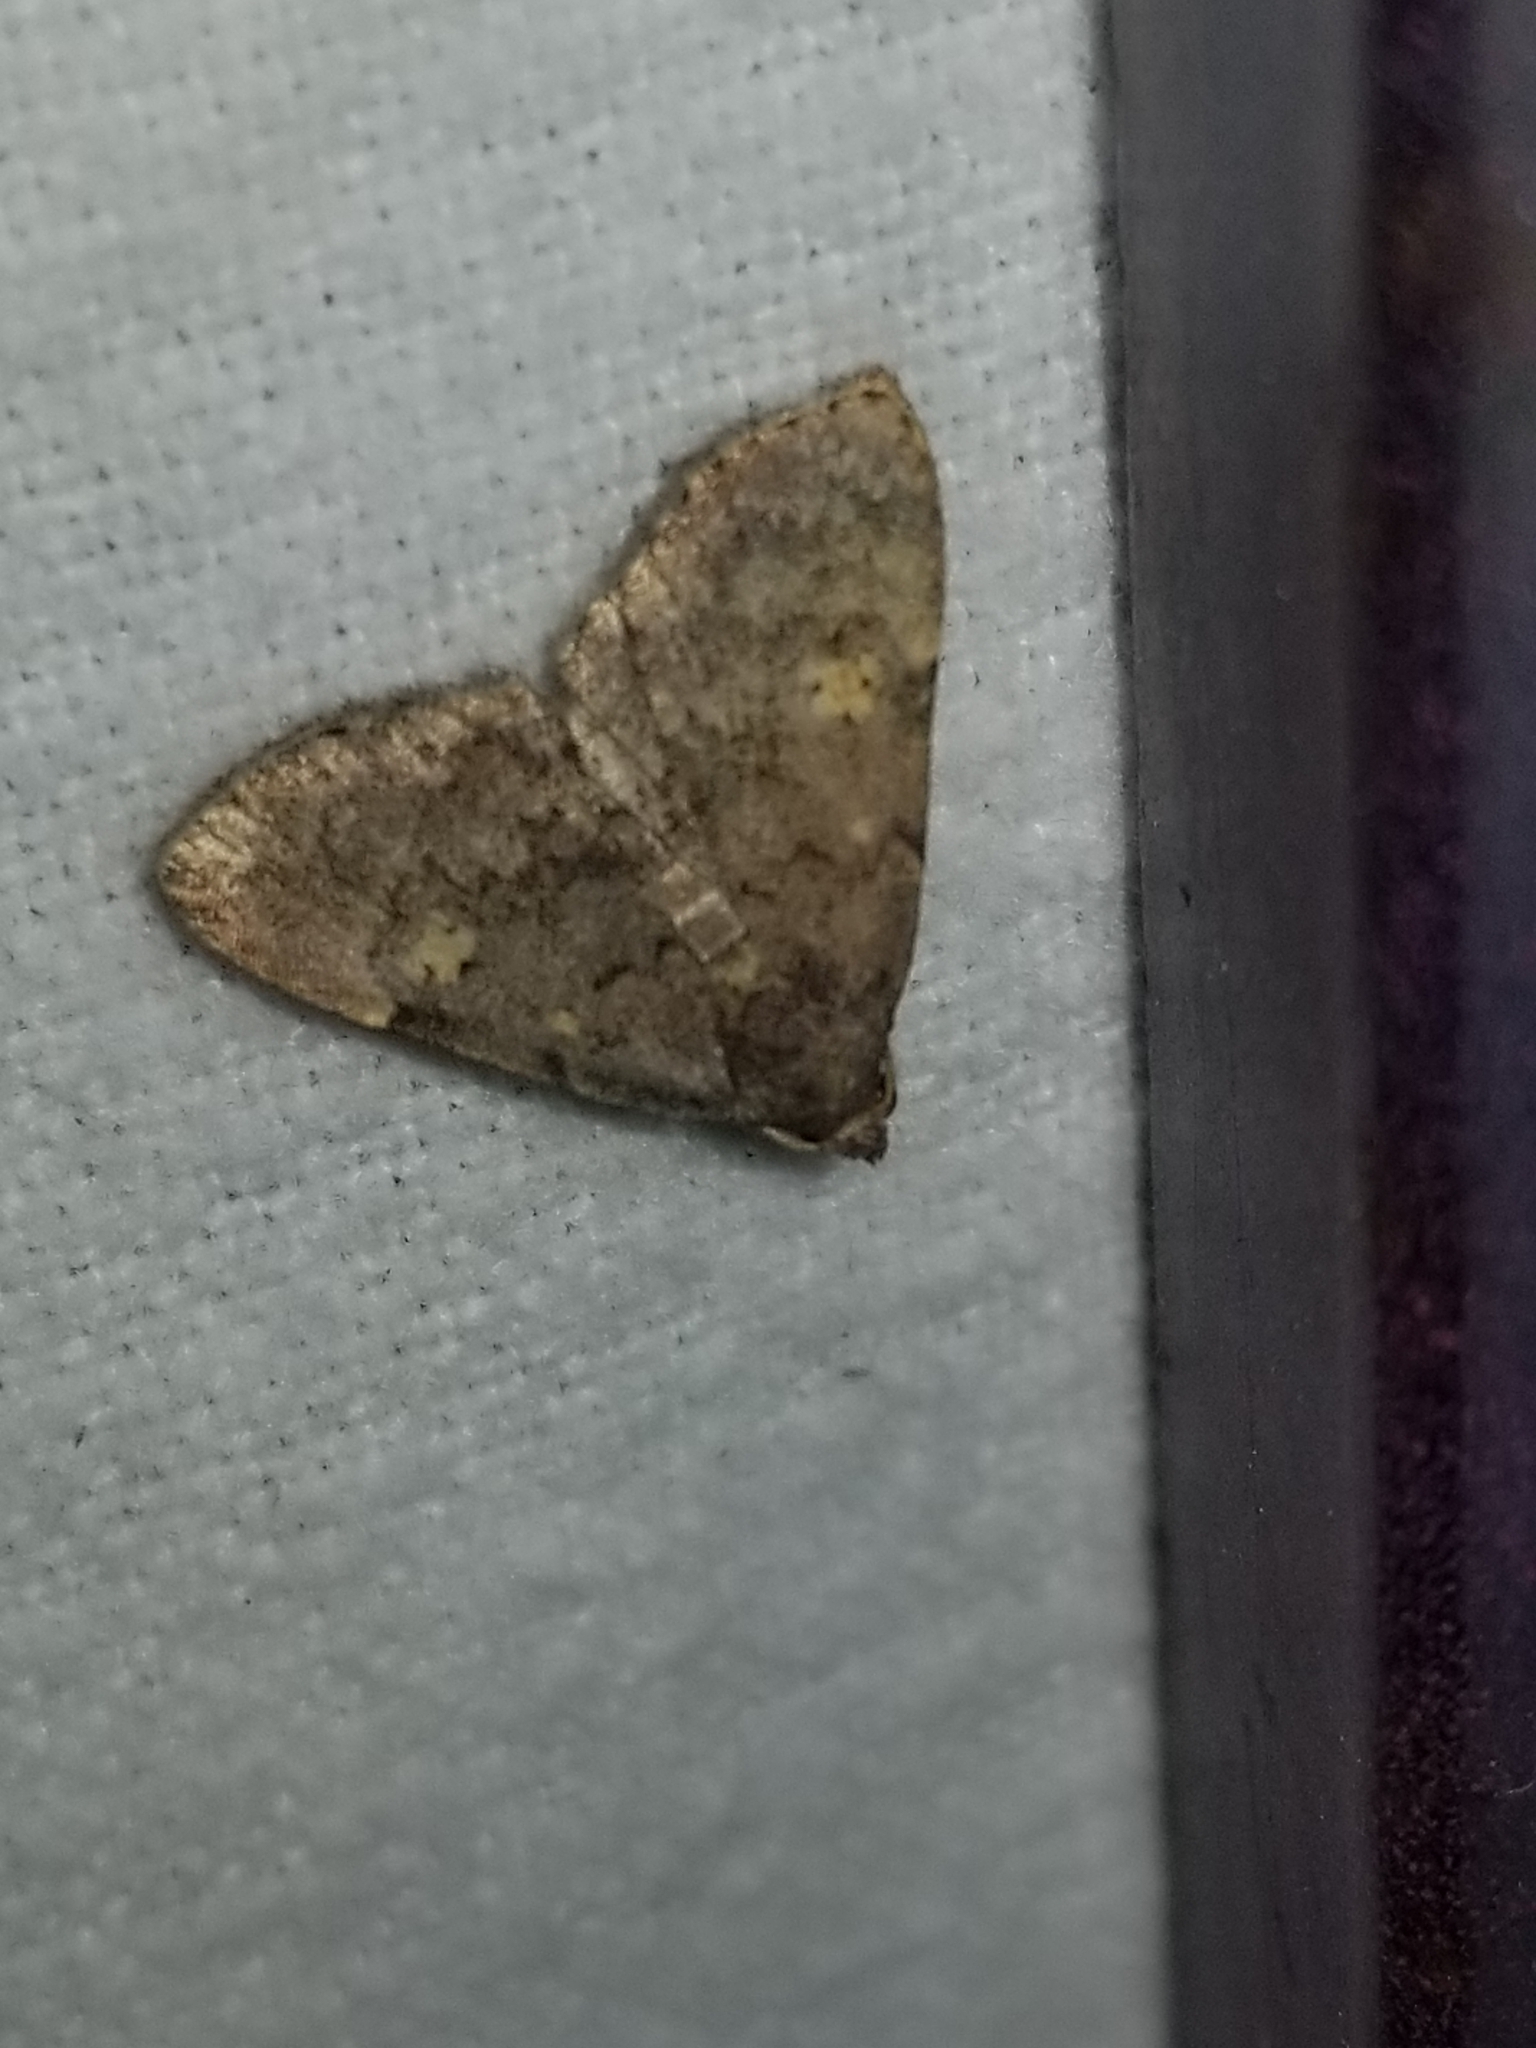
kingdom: Animalia
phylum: Arthropoda
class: Insecta
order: Lepidoptera
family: Erebidae
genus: Idia
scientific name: Idia aemula
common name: Common idia moth
